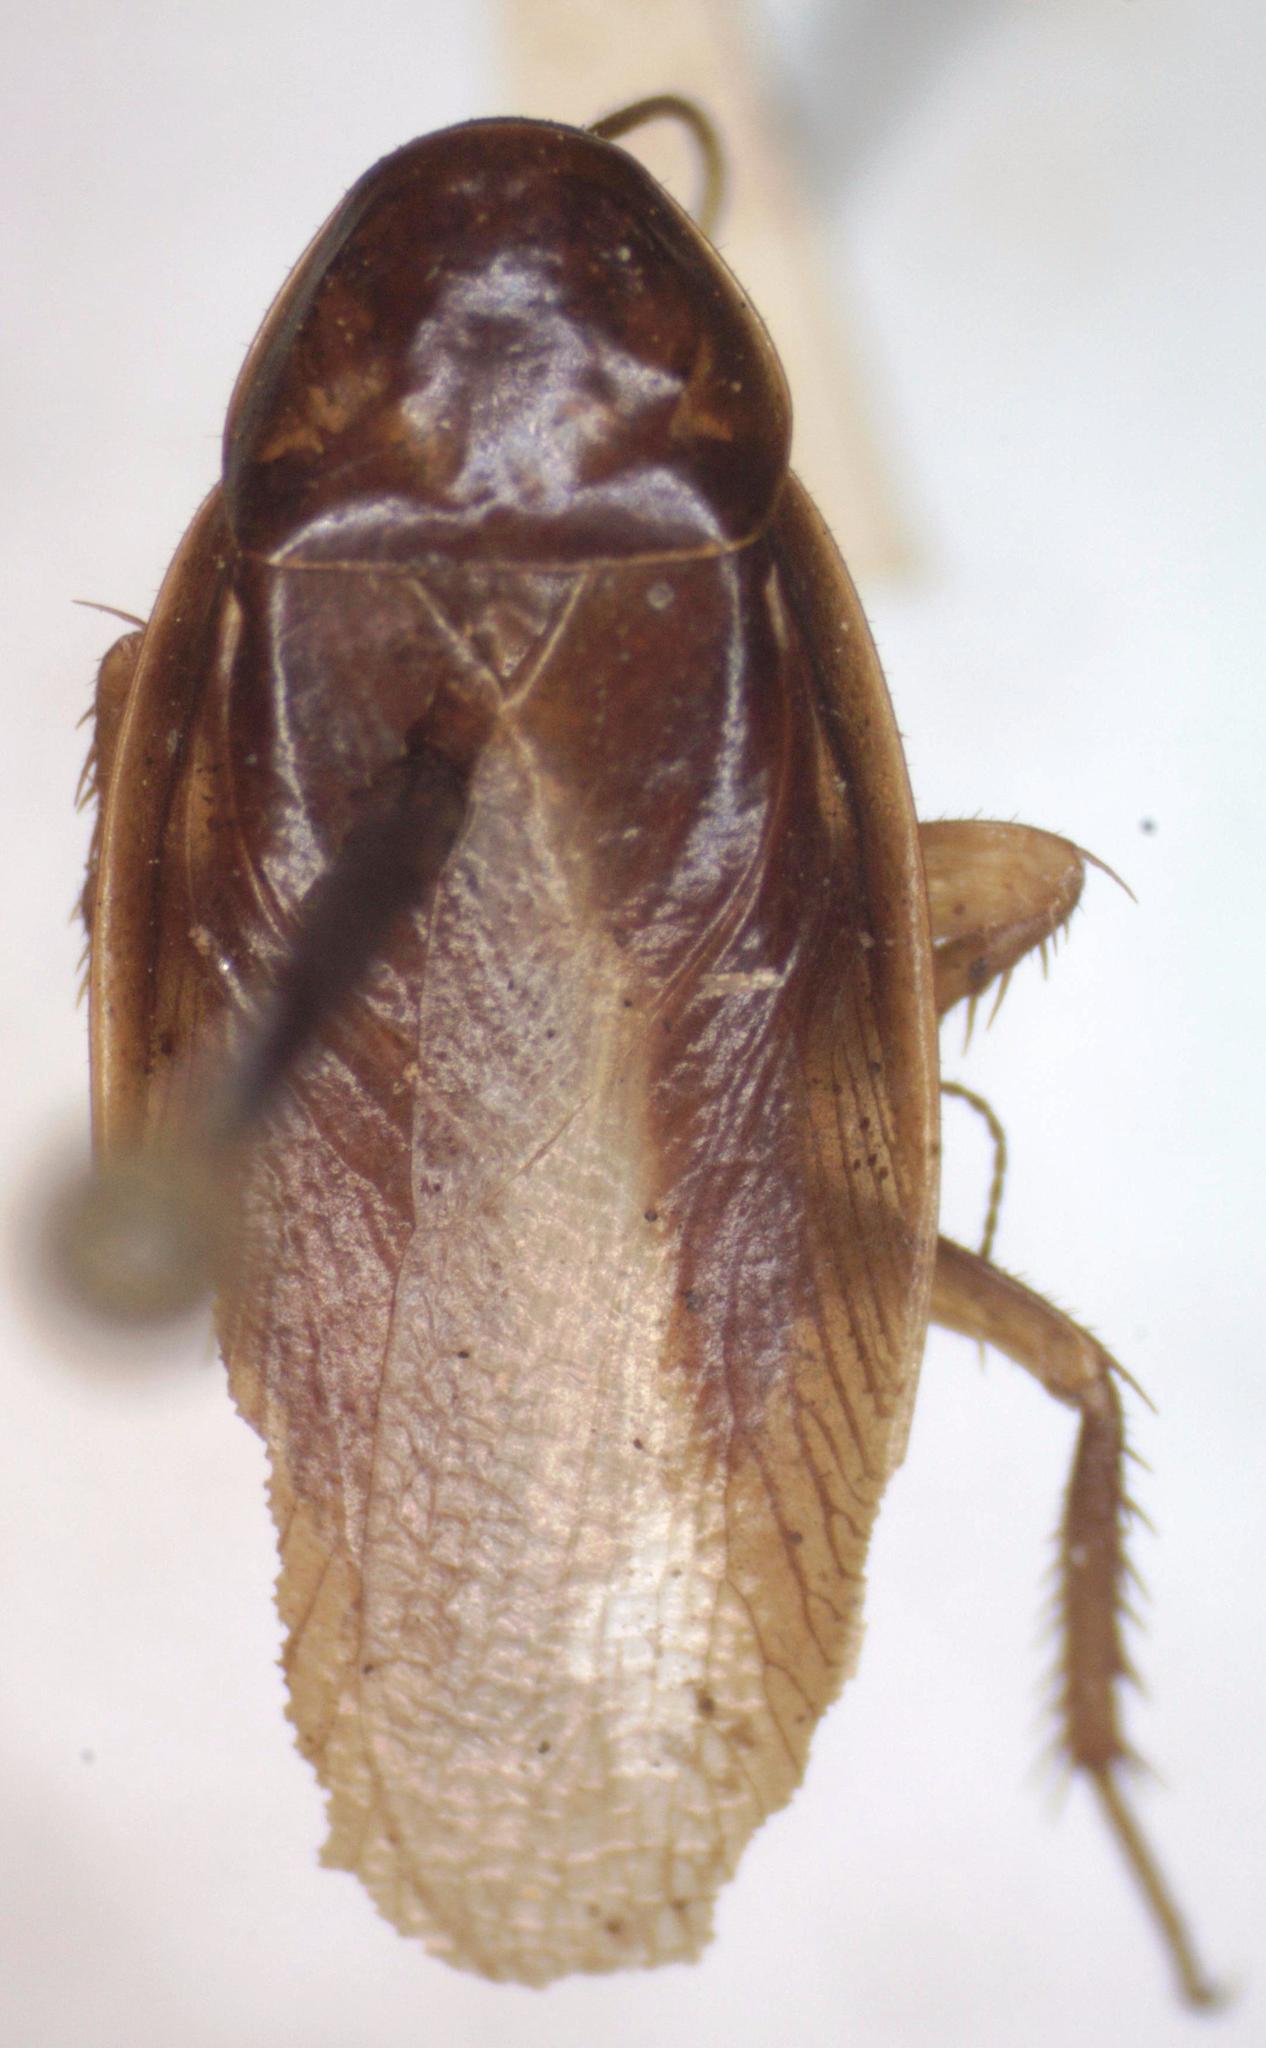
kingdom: Animalia
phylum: Arthropoda
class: Insecta
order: Blattodea
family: Ectobiidae
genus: Ceratinoptera
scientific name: Ceratinoptera picta
